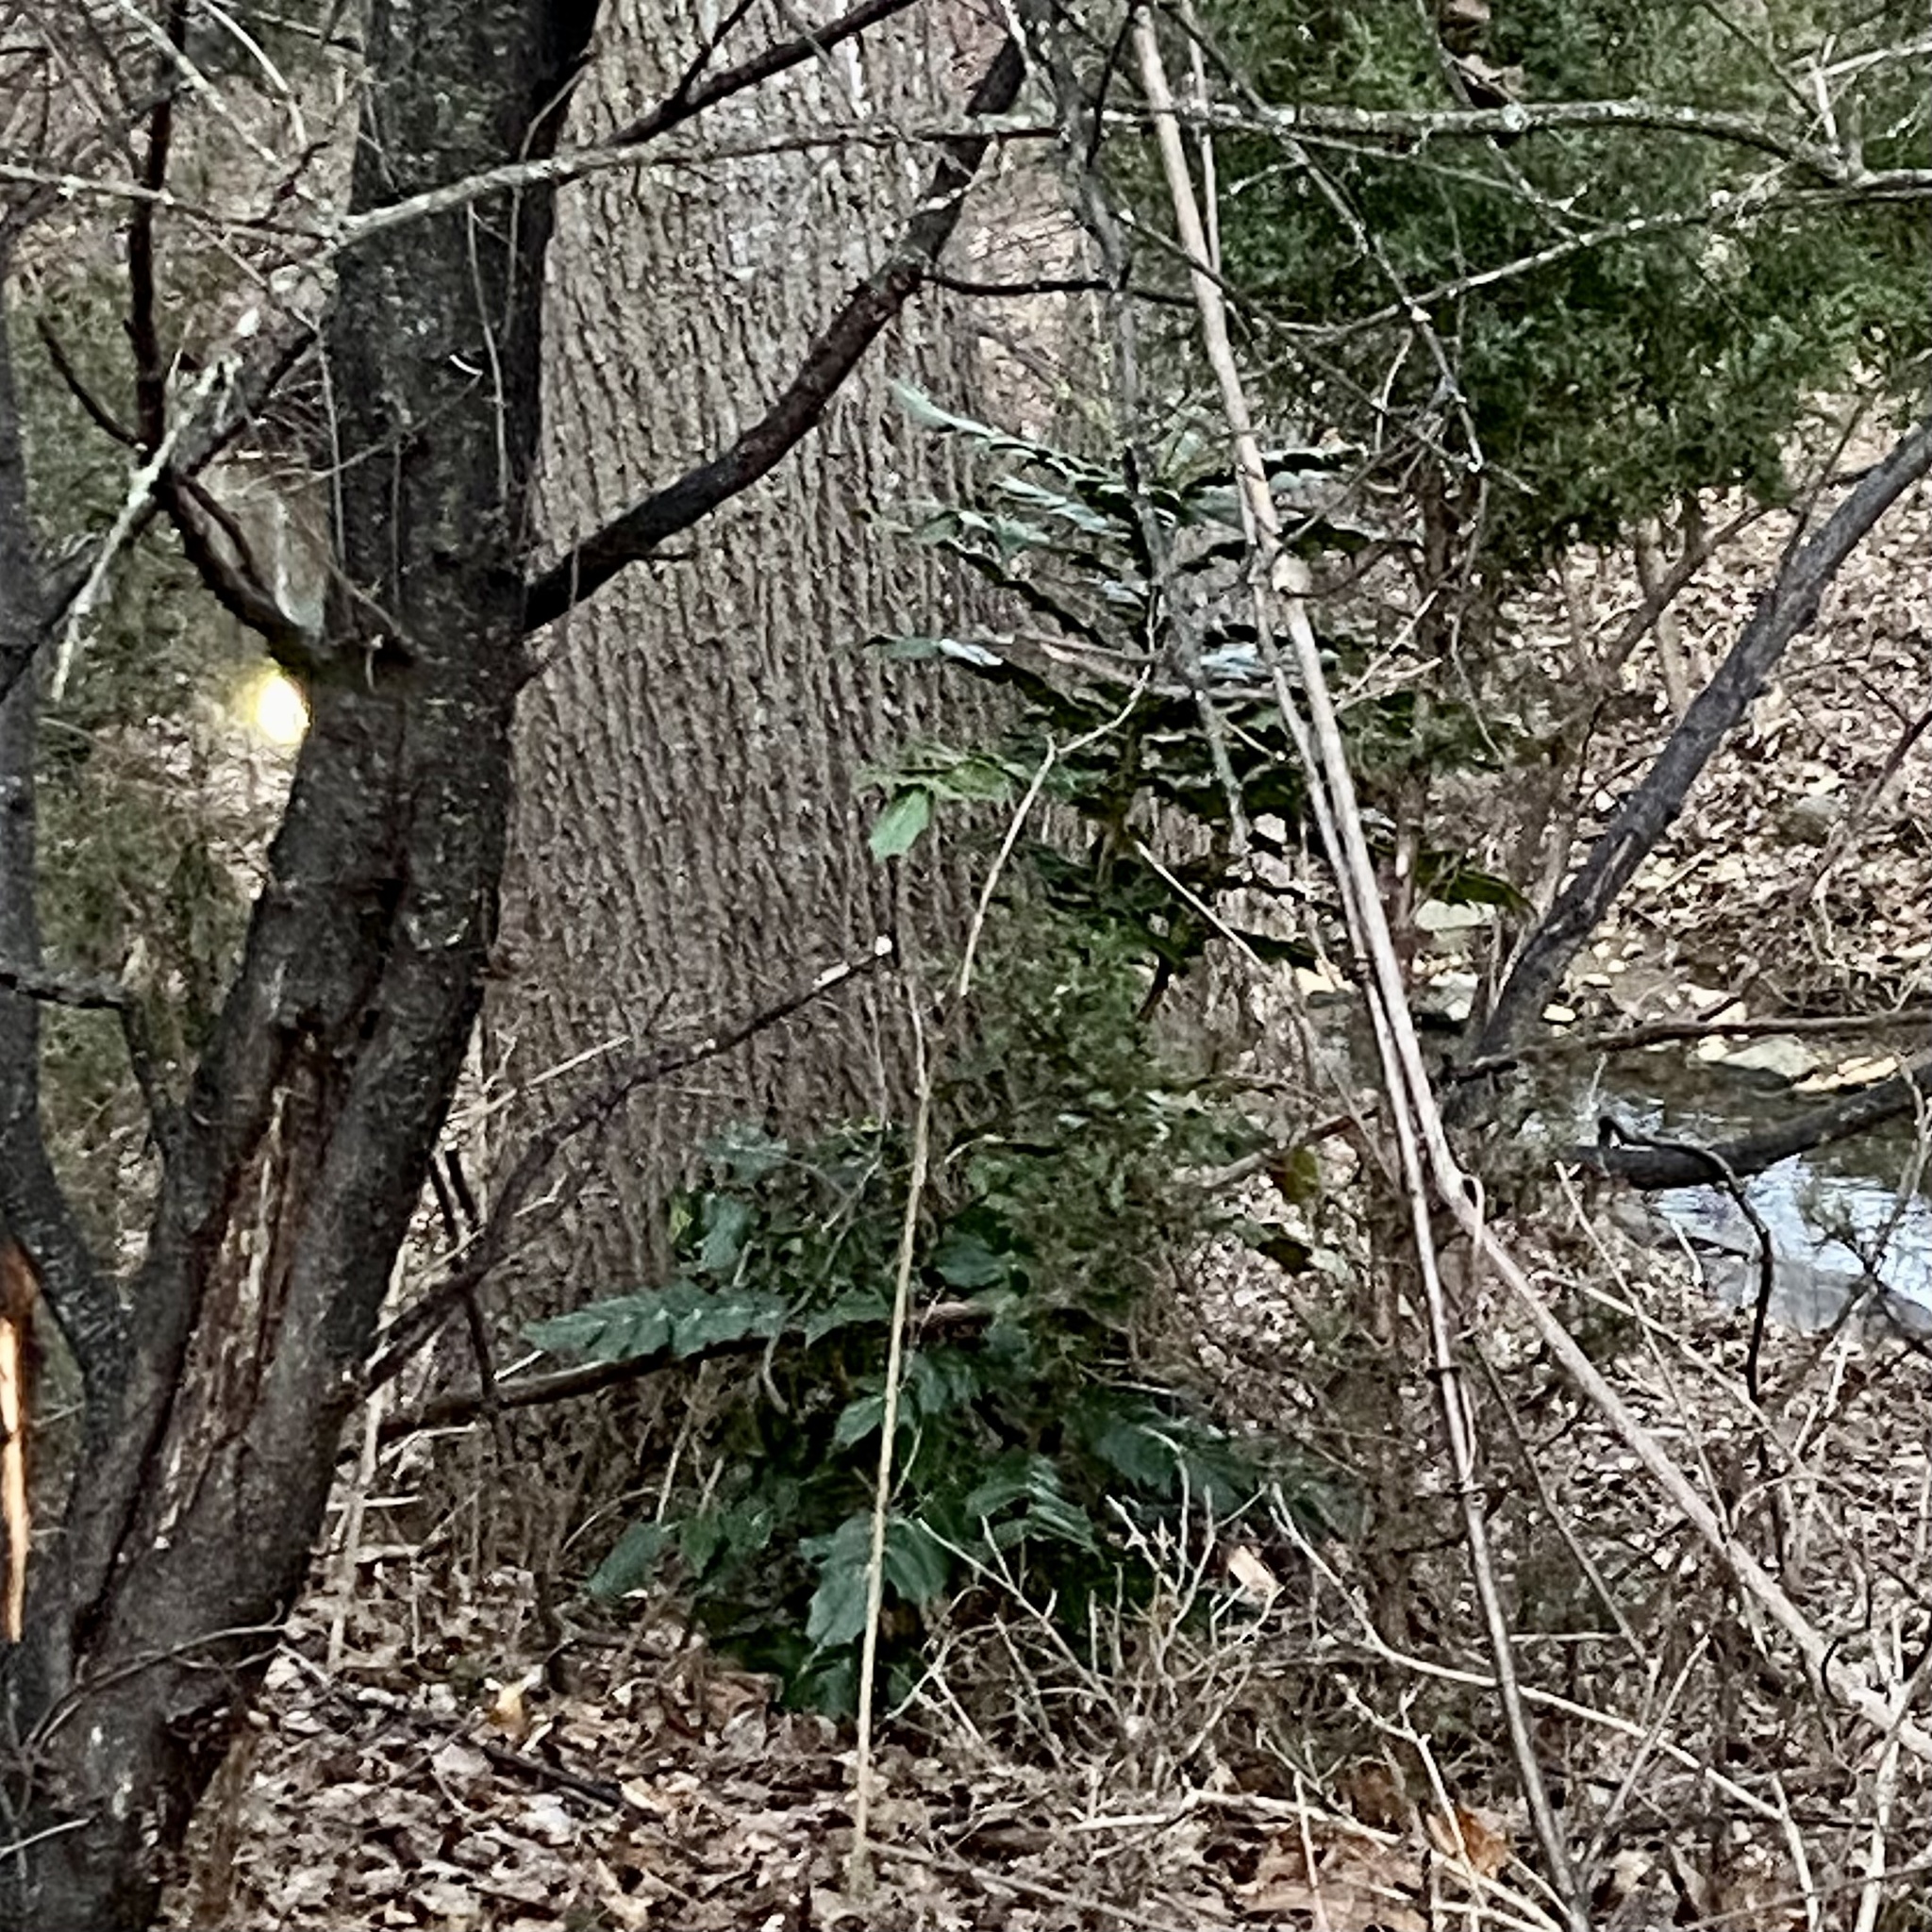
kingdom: Plantae
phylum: Tracheophyta
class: Magnoliopsida
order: Ranunculales
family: Berberidaceae
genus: Mahonia
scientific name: Mahonia bealei
